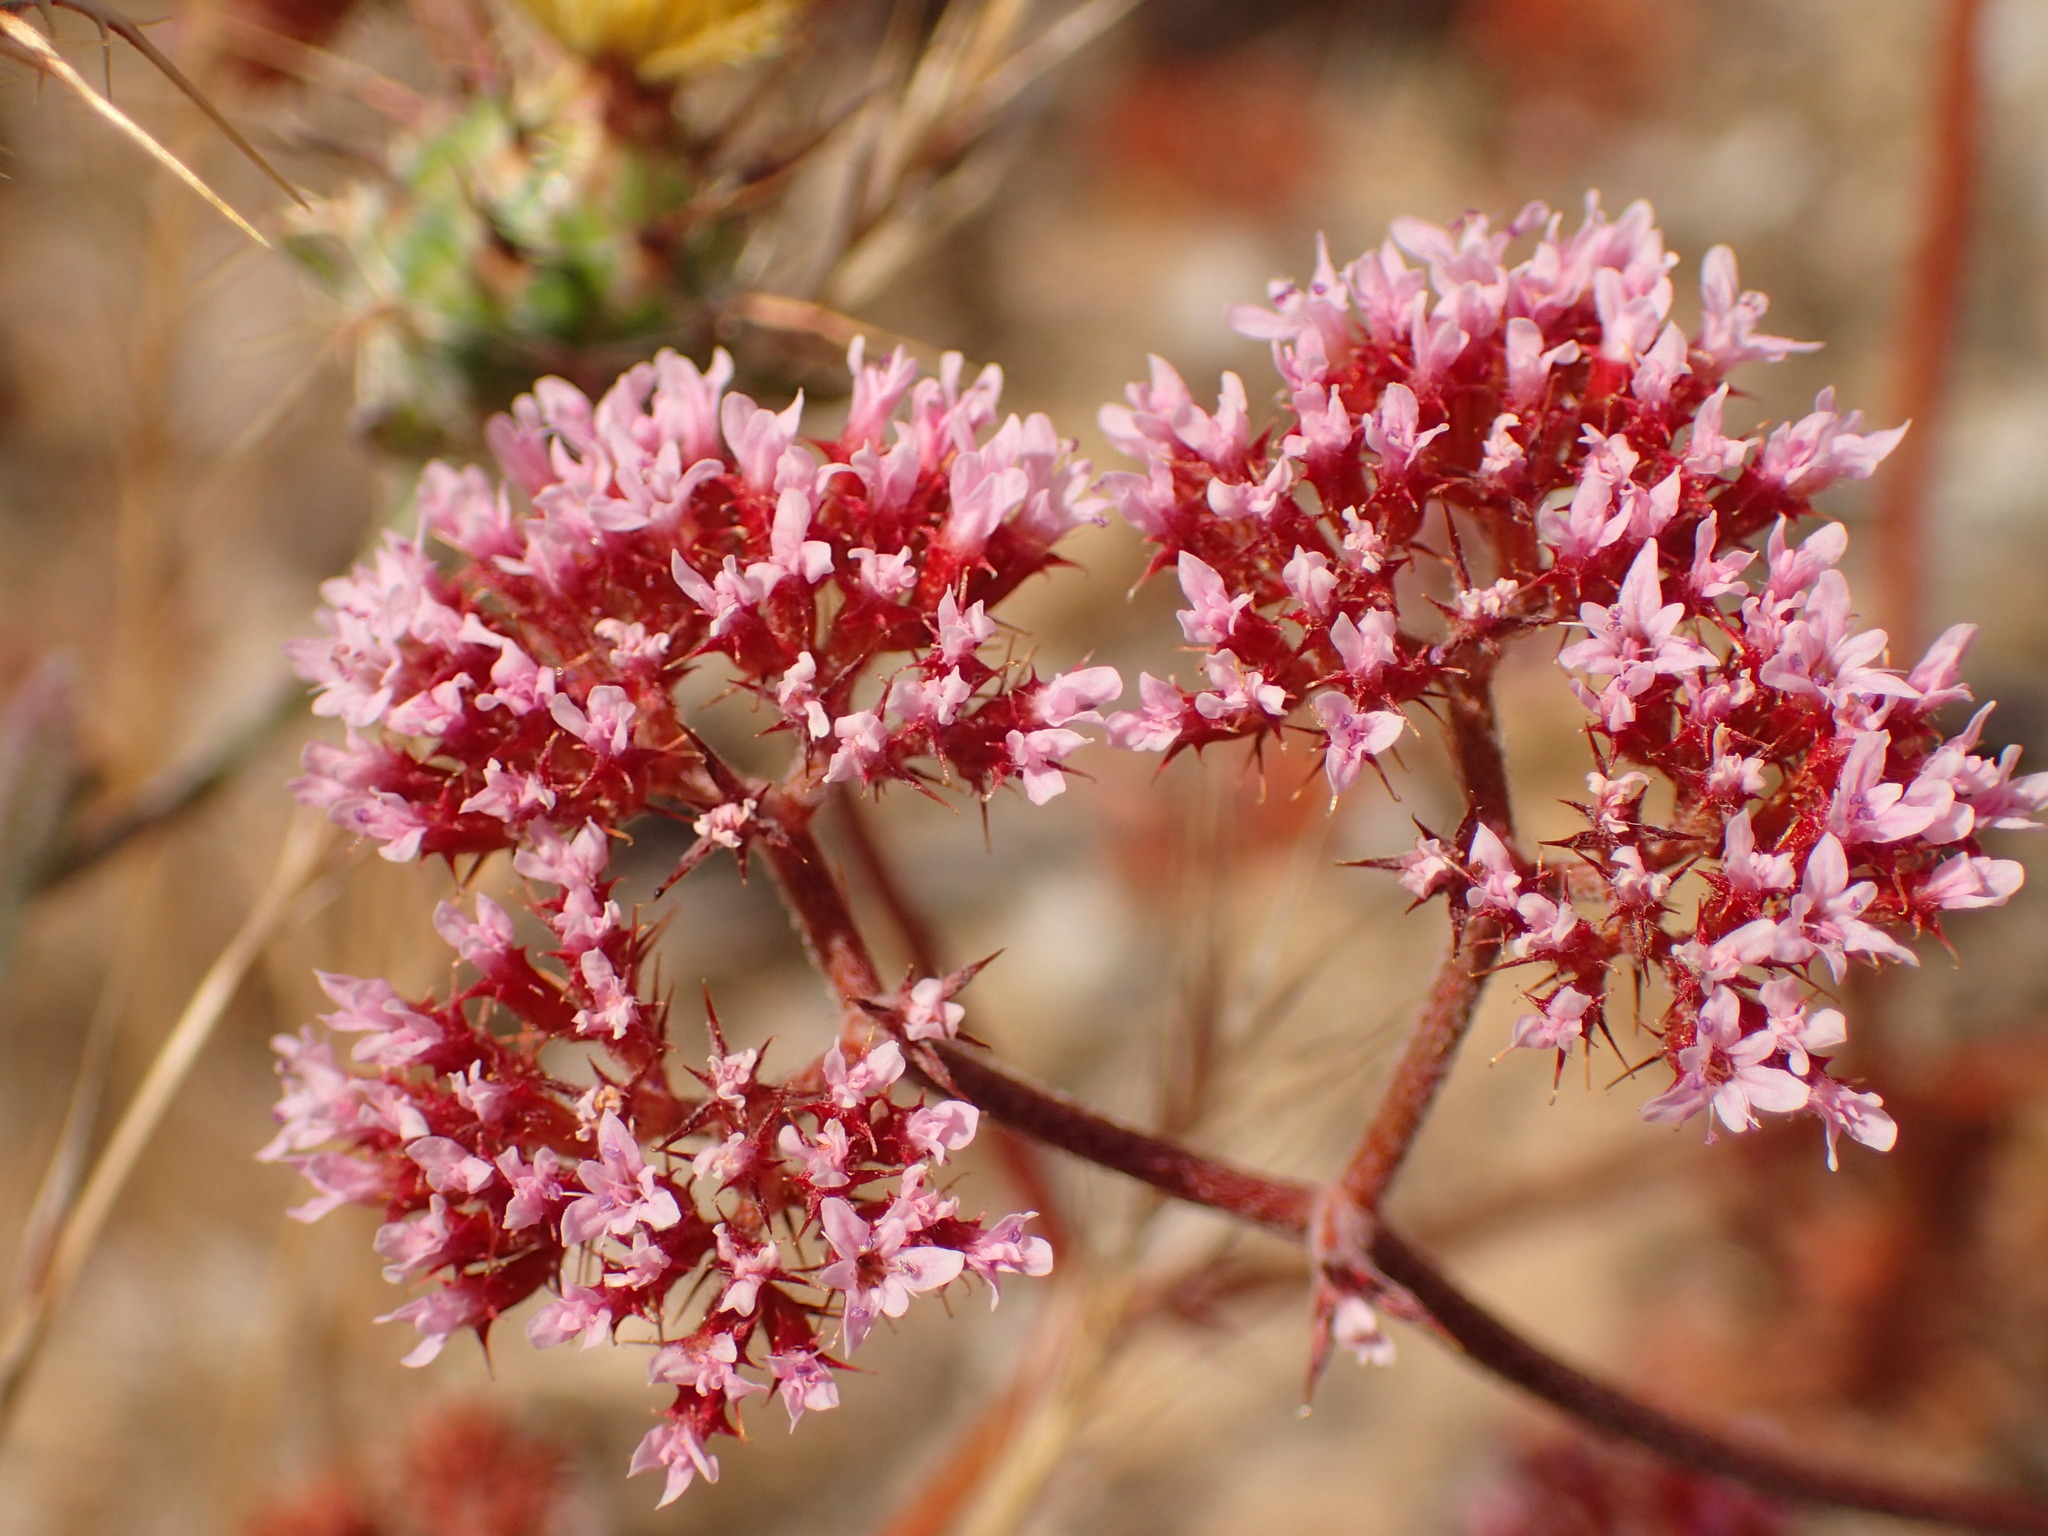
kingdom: Plantae
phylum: Tracheophyta
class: Magnoliopsida
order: Caryophyllales
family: Polygonaceae
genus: Chorizanthe
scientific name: Chorizanthe staticoides
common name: Turkish rugging
